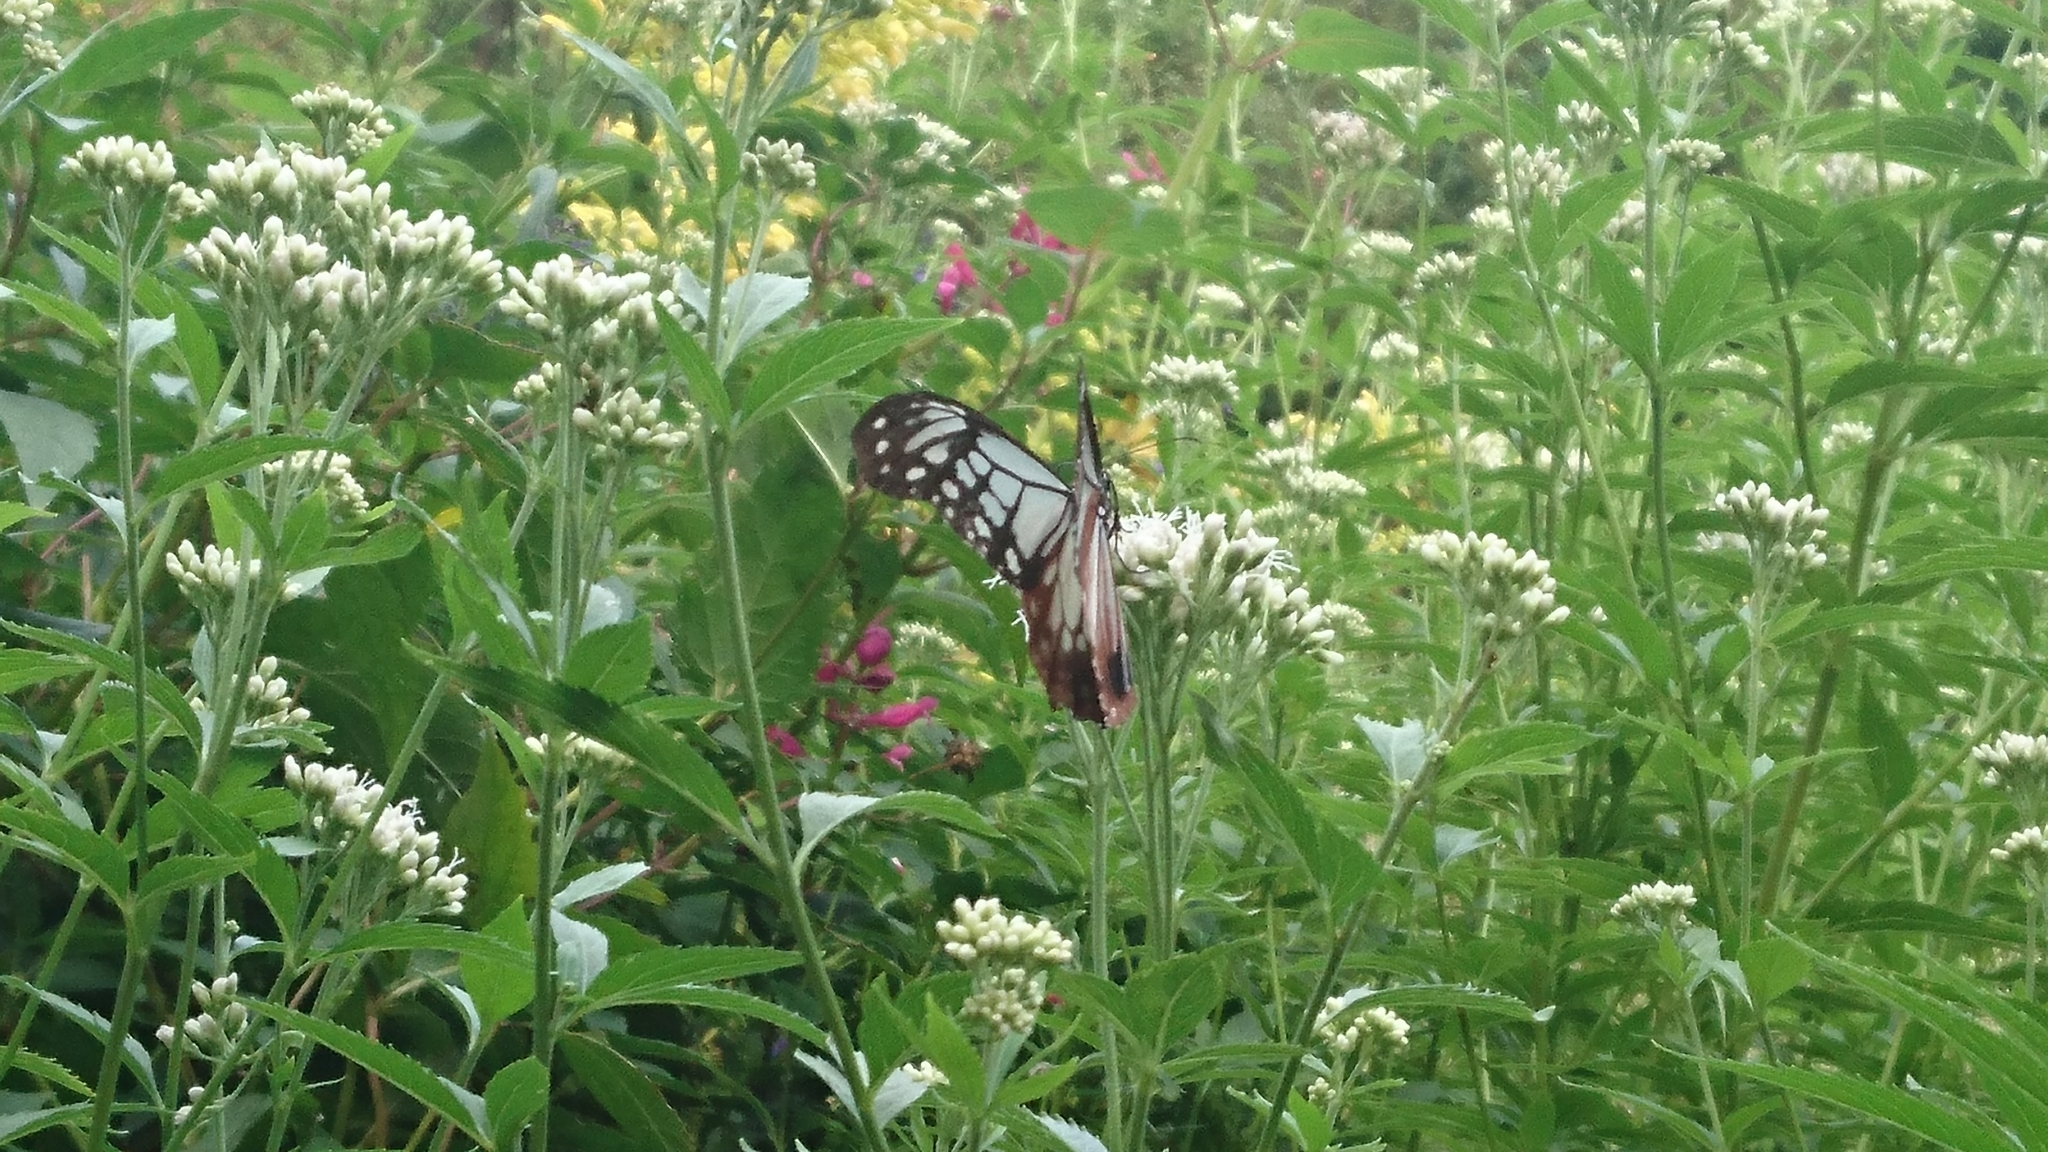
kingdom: Animalia
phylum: Arthropoda
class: Insecta
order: Lepidoptera
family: Nymphalidae
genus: Parantica
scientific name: Parantica sita
